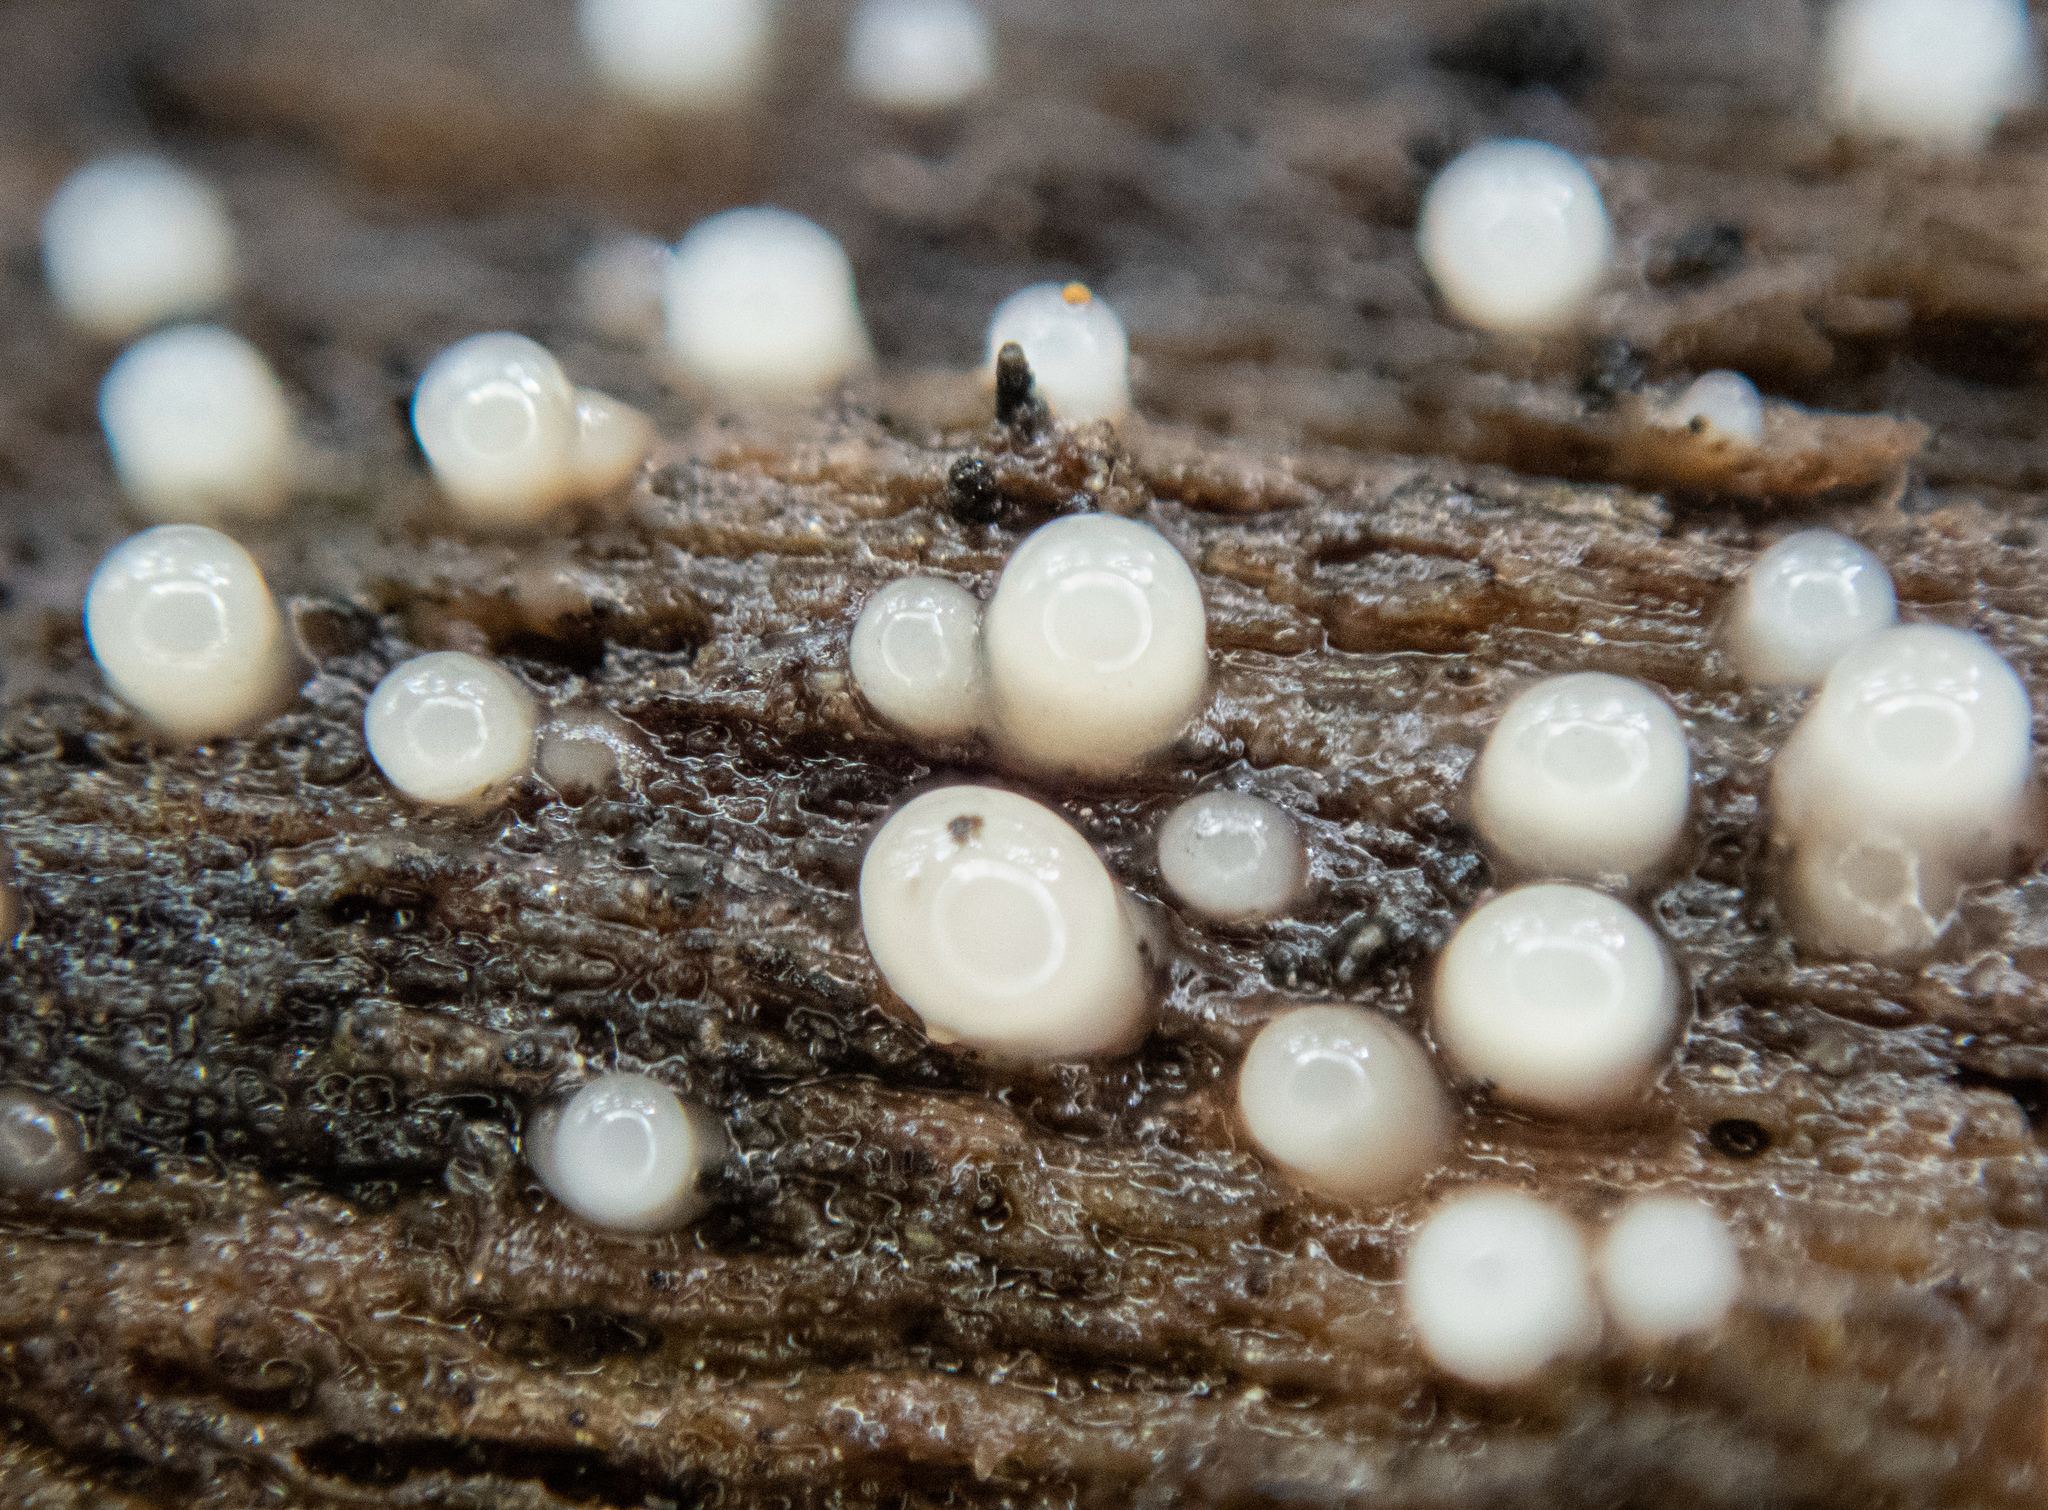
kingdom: Fungi
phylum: Basidiomycota
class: Atractiellomycetes
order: Atractiellales
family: Phleogenaceae
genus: Helicogloea
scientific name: Helicogloea compressa
